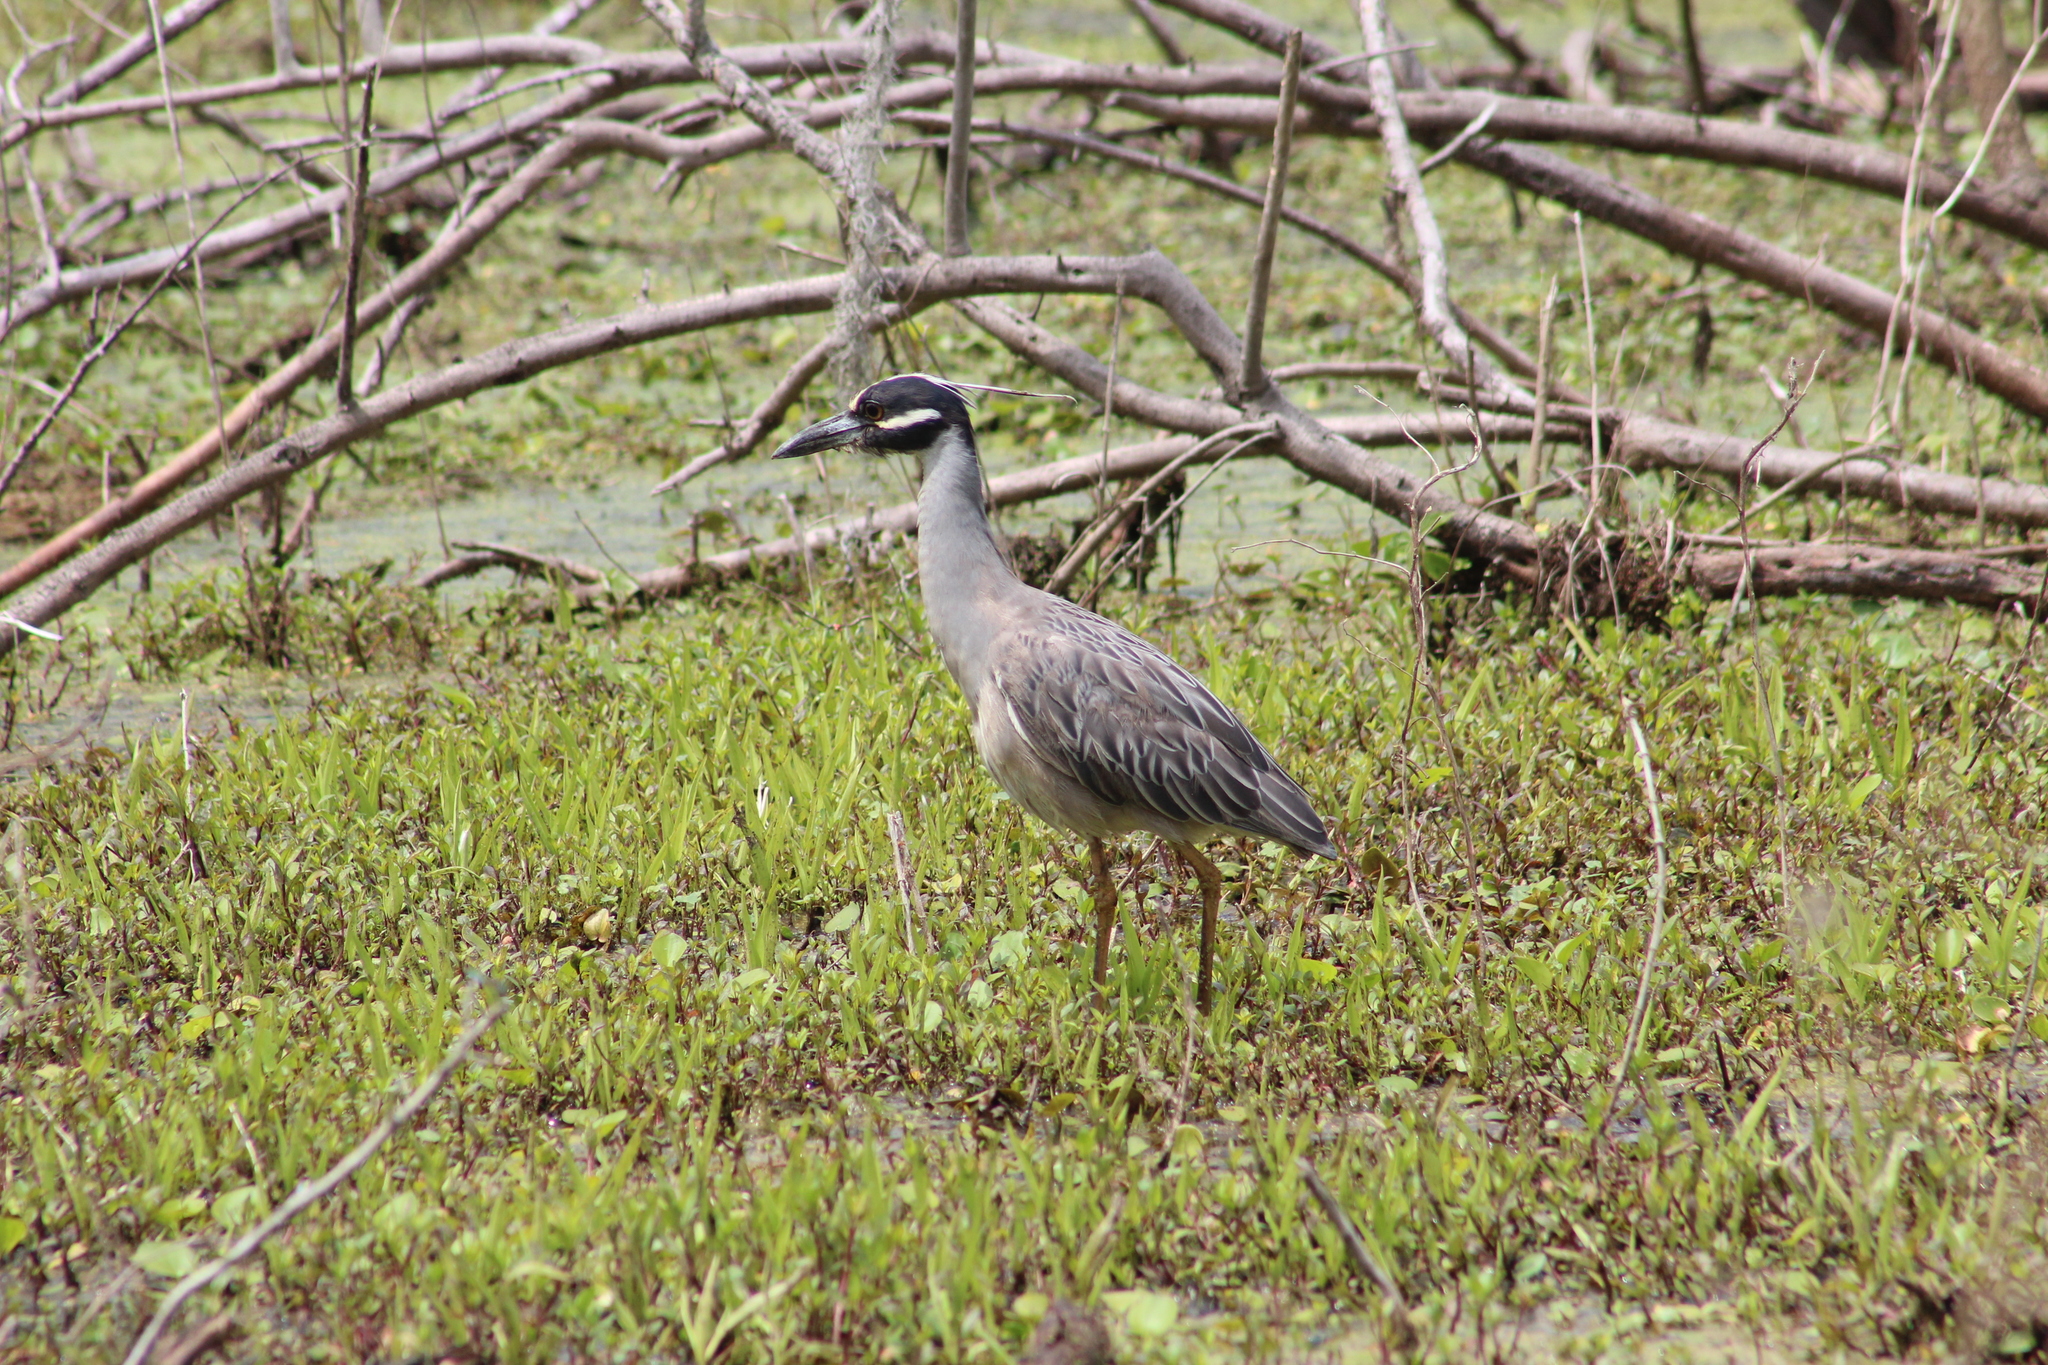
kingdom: Animalia
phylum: Chordata
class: Aves
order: Pelecaniformes
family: Ardeidae
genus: Nyctanassa
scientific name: Nyctanassa violacea
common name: Yellow-crowned night heron
